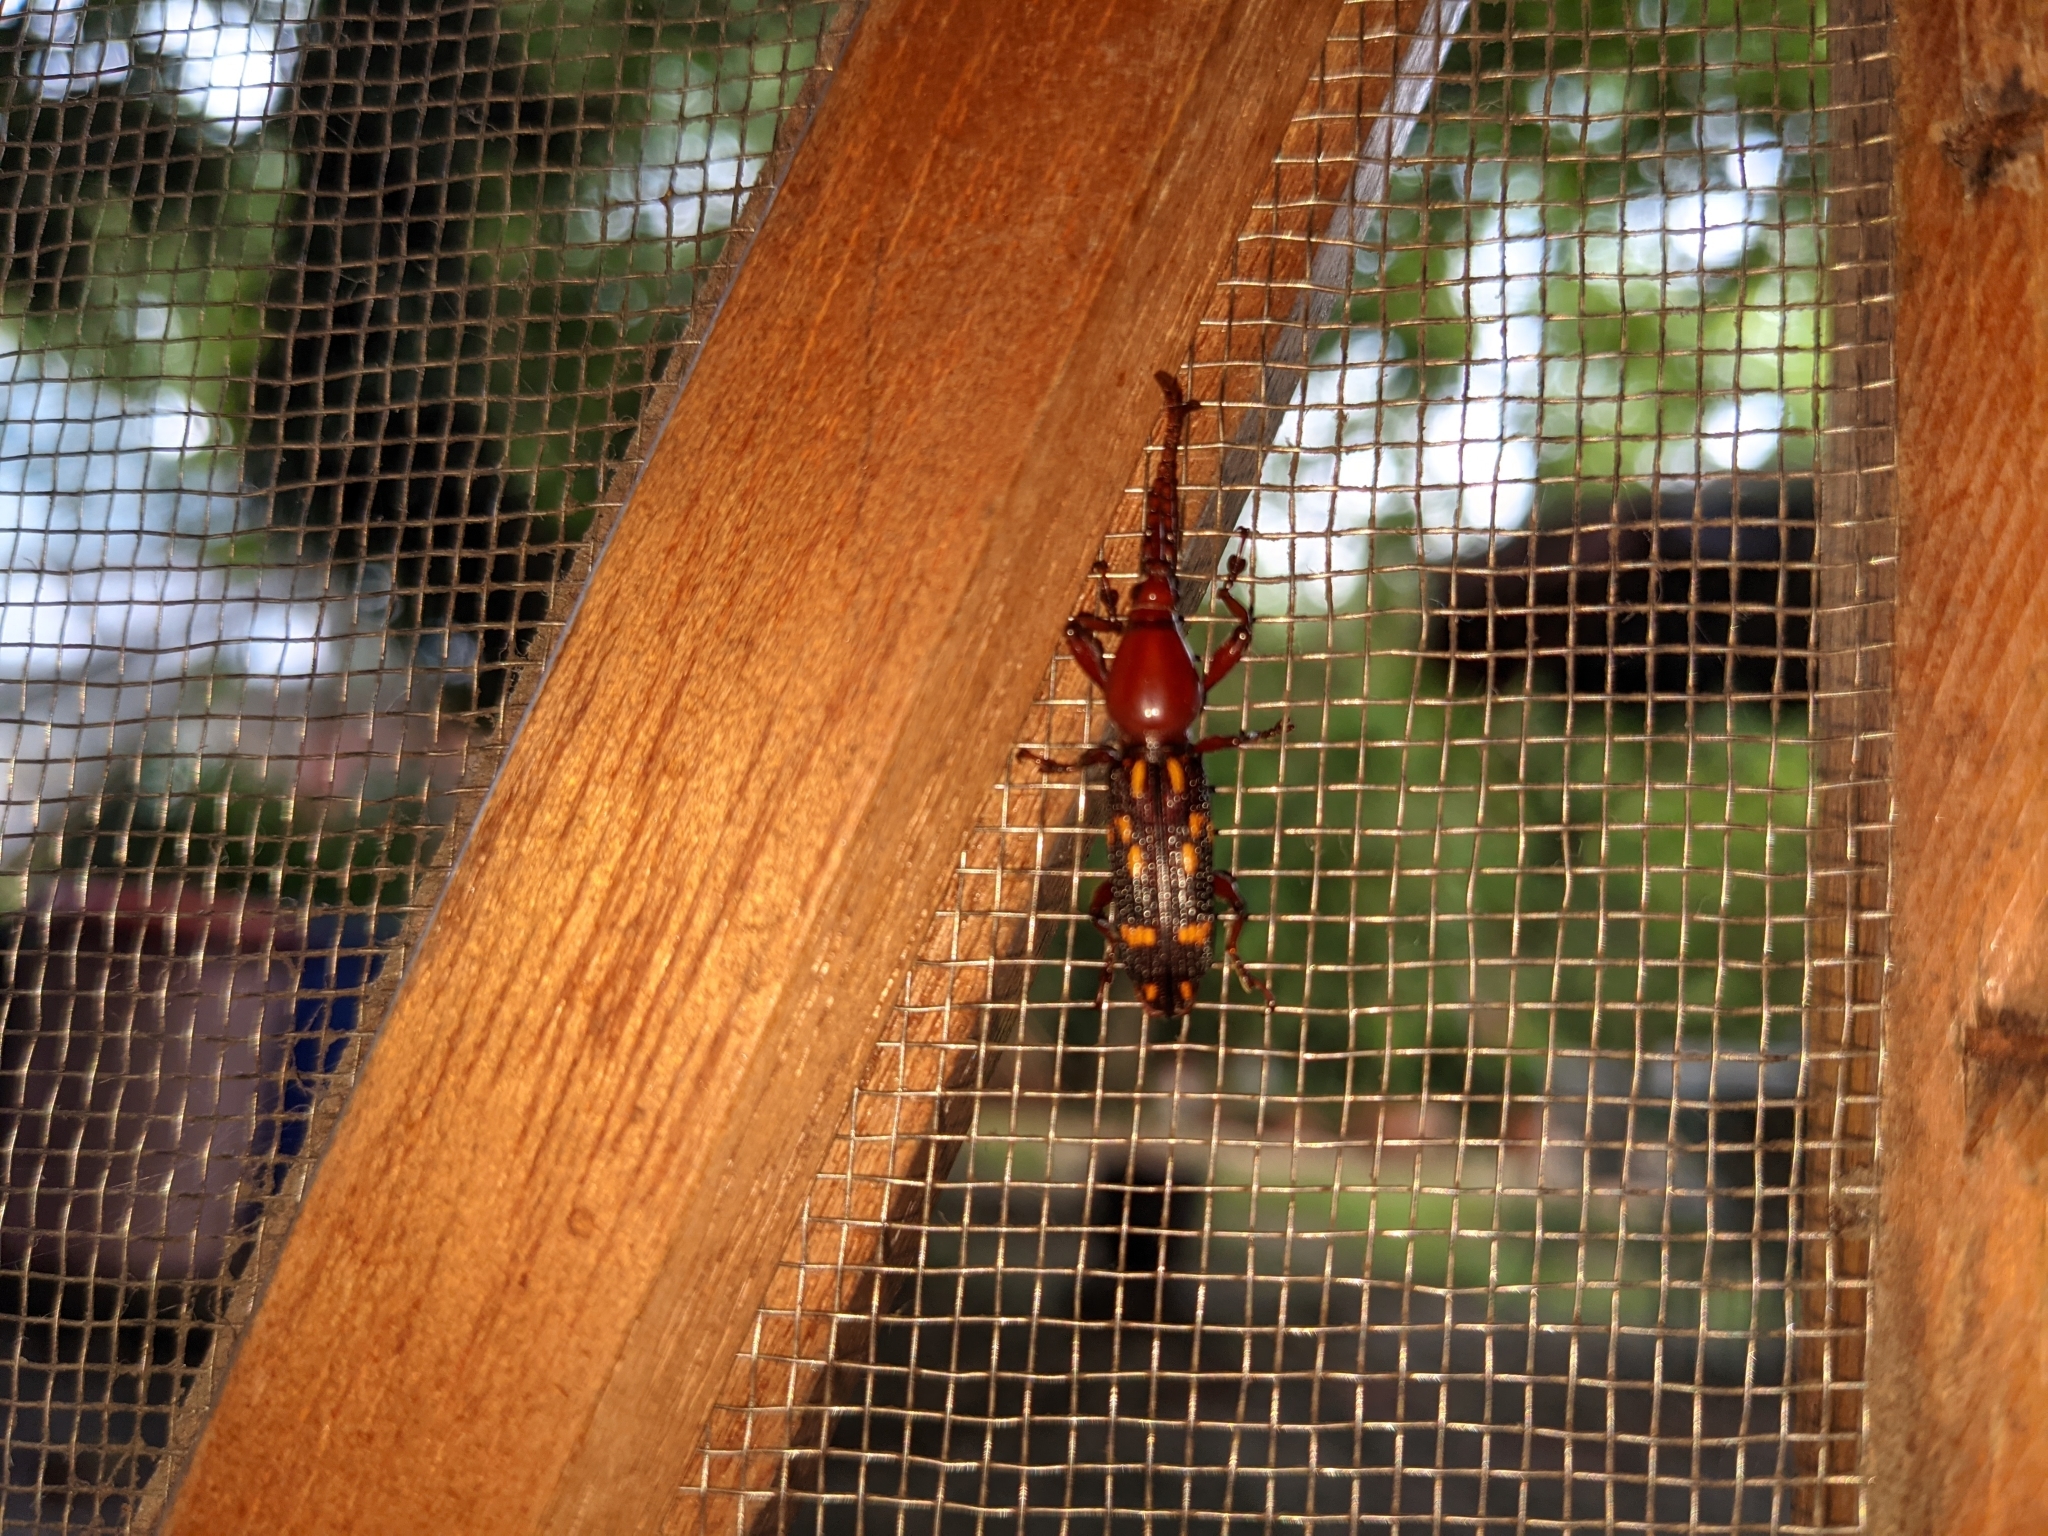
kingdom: Animalia
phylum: Arthropoda
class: Insecta
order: Coleoptera
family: Brentidae
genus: Baryrhynchus
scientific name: Baryrhynchus poweri
